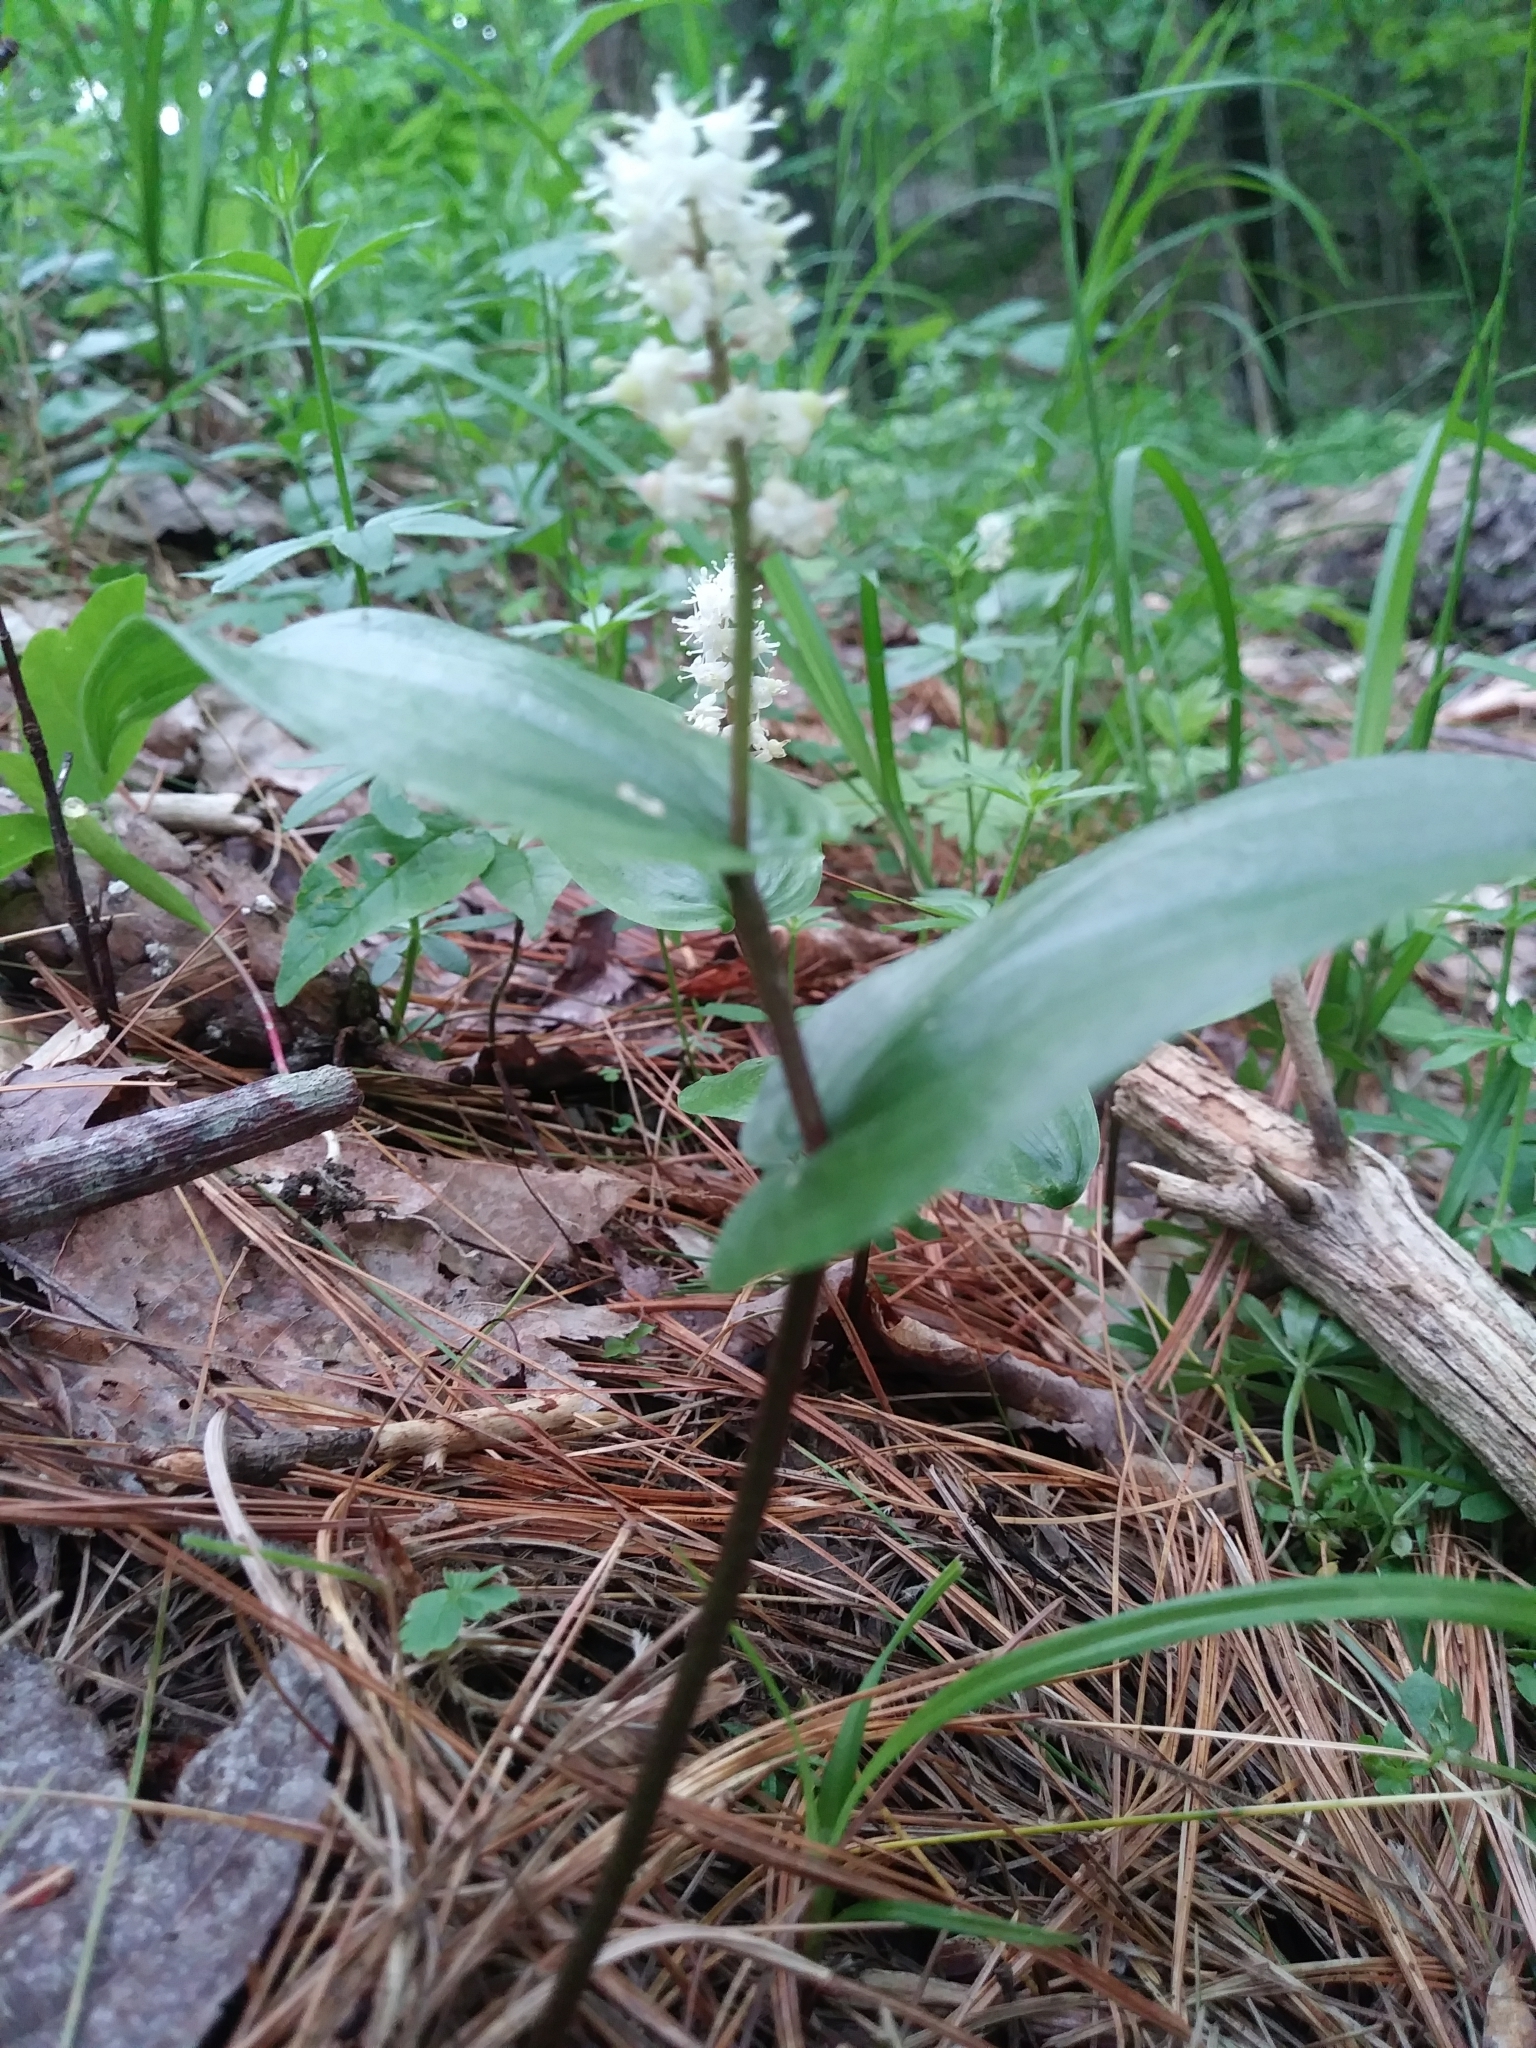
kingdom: Plantae
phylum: Tracheophyta
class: Liliopsida
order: Asparagales
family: Asparagaceae
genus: Maianthemum
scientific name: Maianthemum canadense
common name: False lily-of-the-valley
